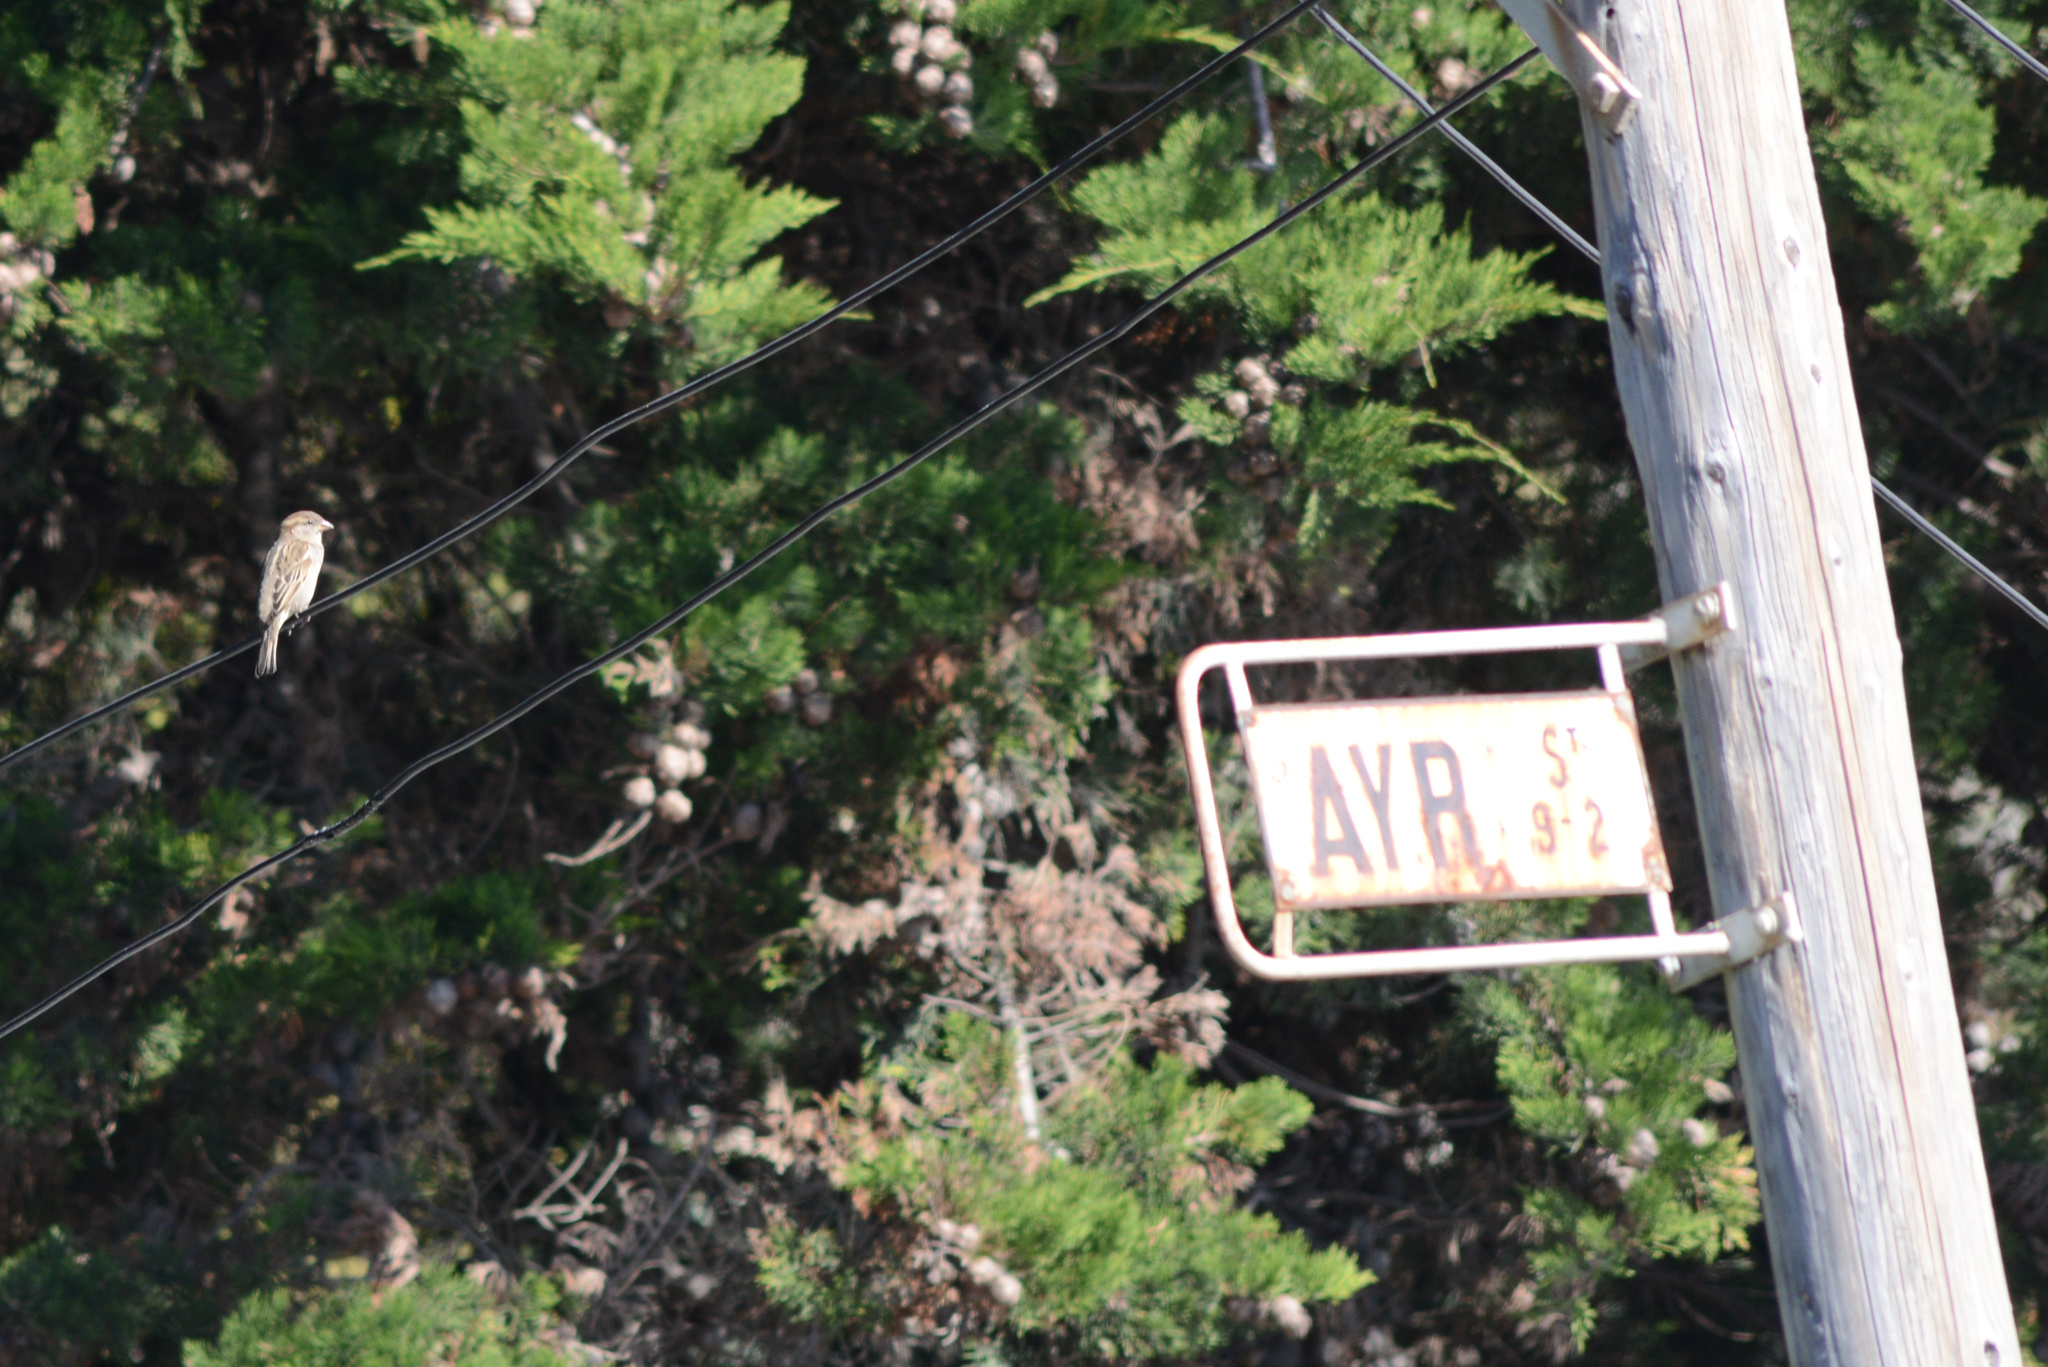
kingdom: Animalia
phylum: Chordata
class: Aves
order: Passeriformes
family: Passeridae
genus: Passer
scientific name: Passer domesticus
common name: House sparrow
